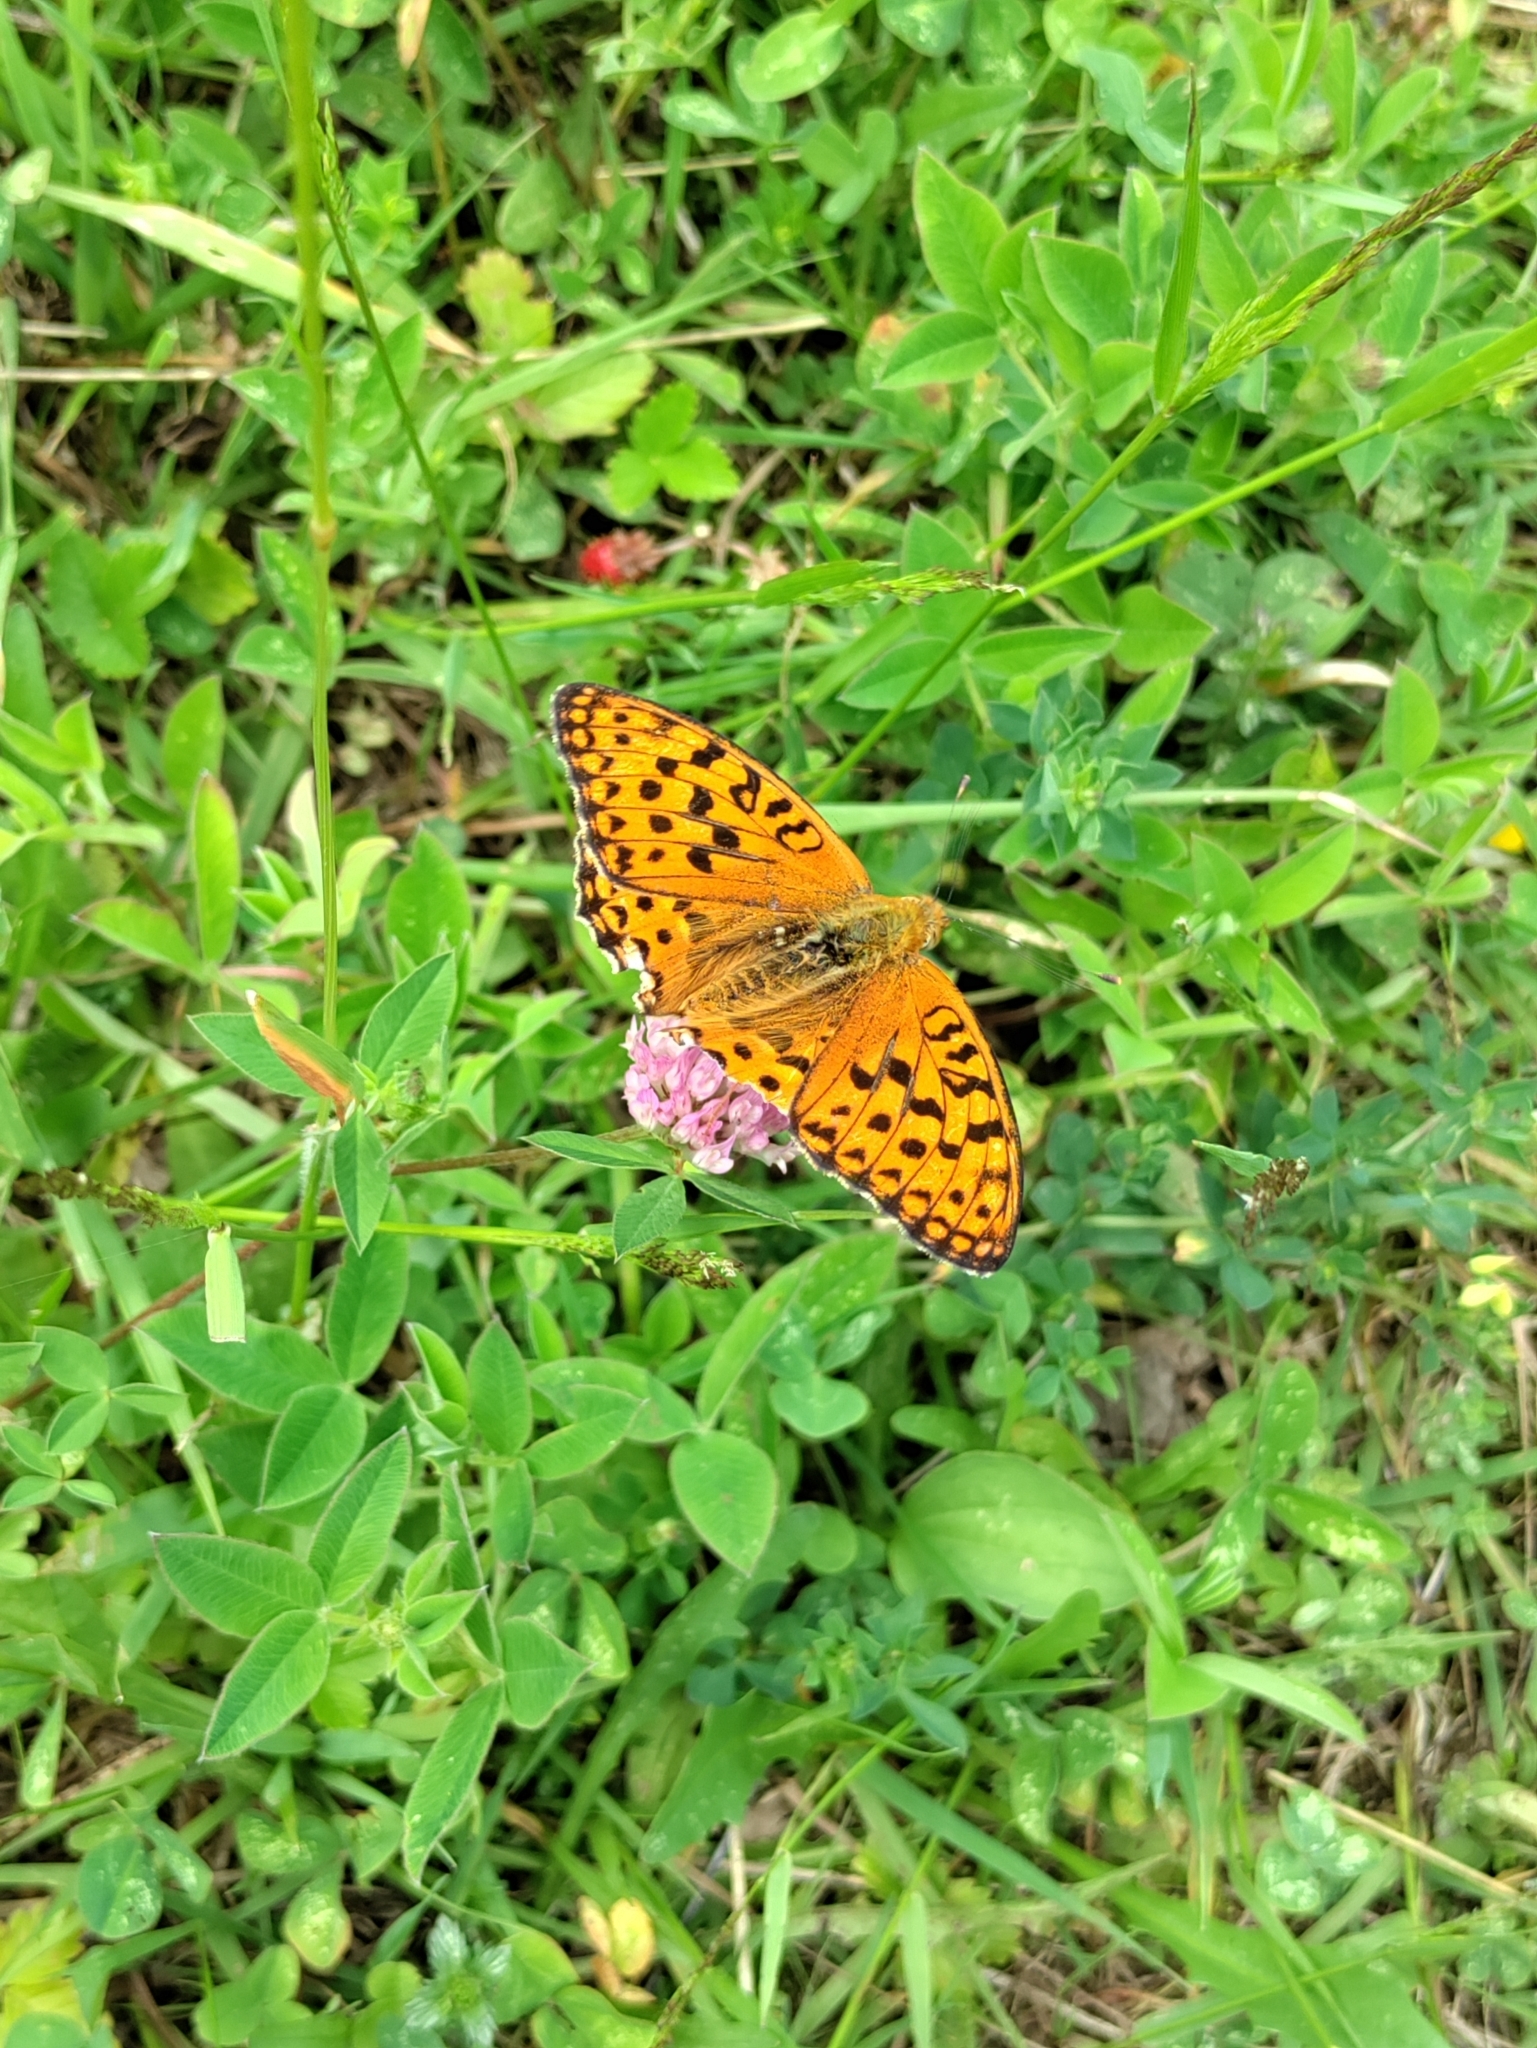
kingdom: Animalia
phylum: Arthropoda
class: Insecta
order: Lepidoptera
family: Nymphalidae
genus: Fabriciana
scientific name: Fabriciana adippe
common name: High brown fritillary
